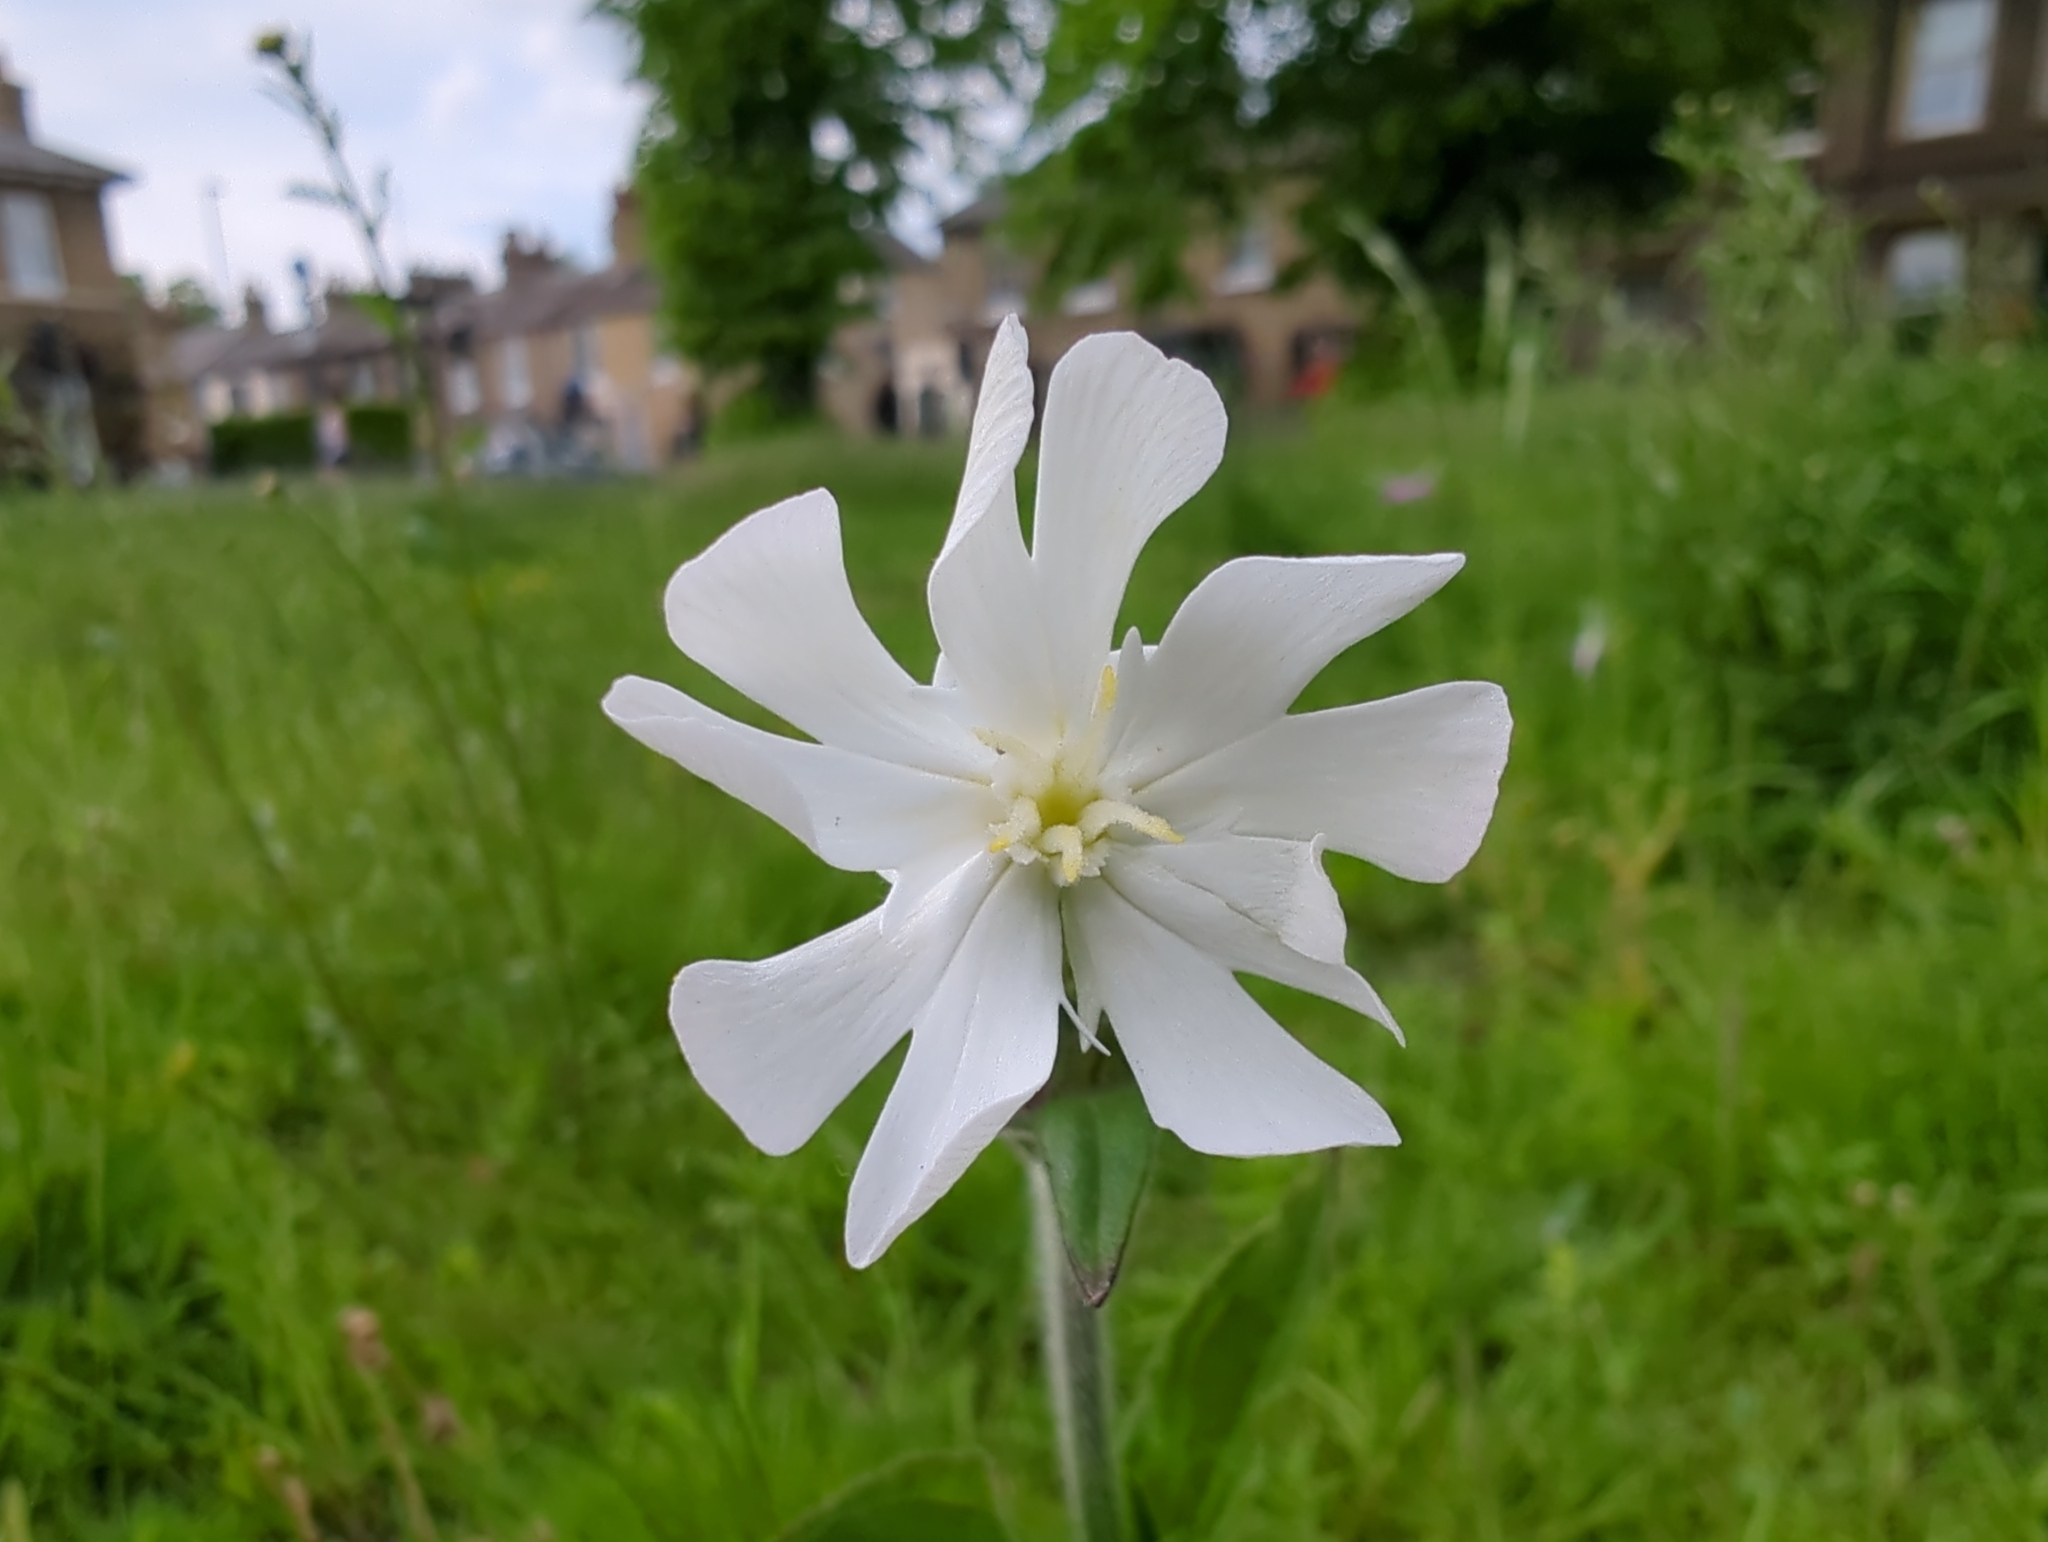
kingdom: Plantae
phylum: Tracheophyta
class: Magnoliopsida
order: Caryophyllales
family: Caryophyllaceae
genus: Silene
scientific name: Silene latifolia
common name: White campion
